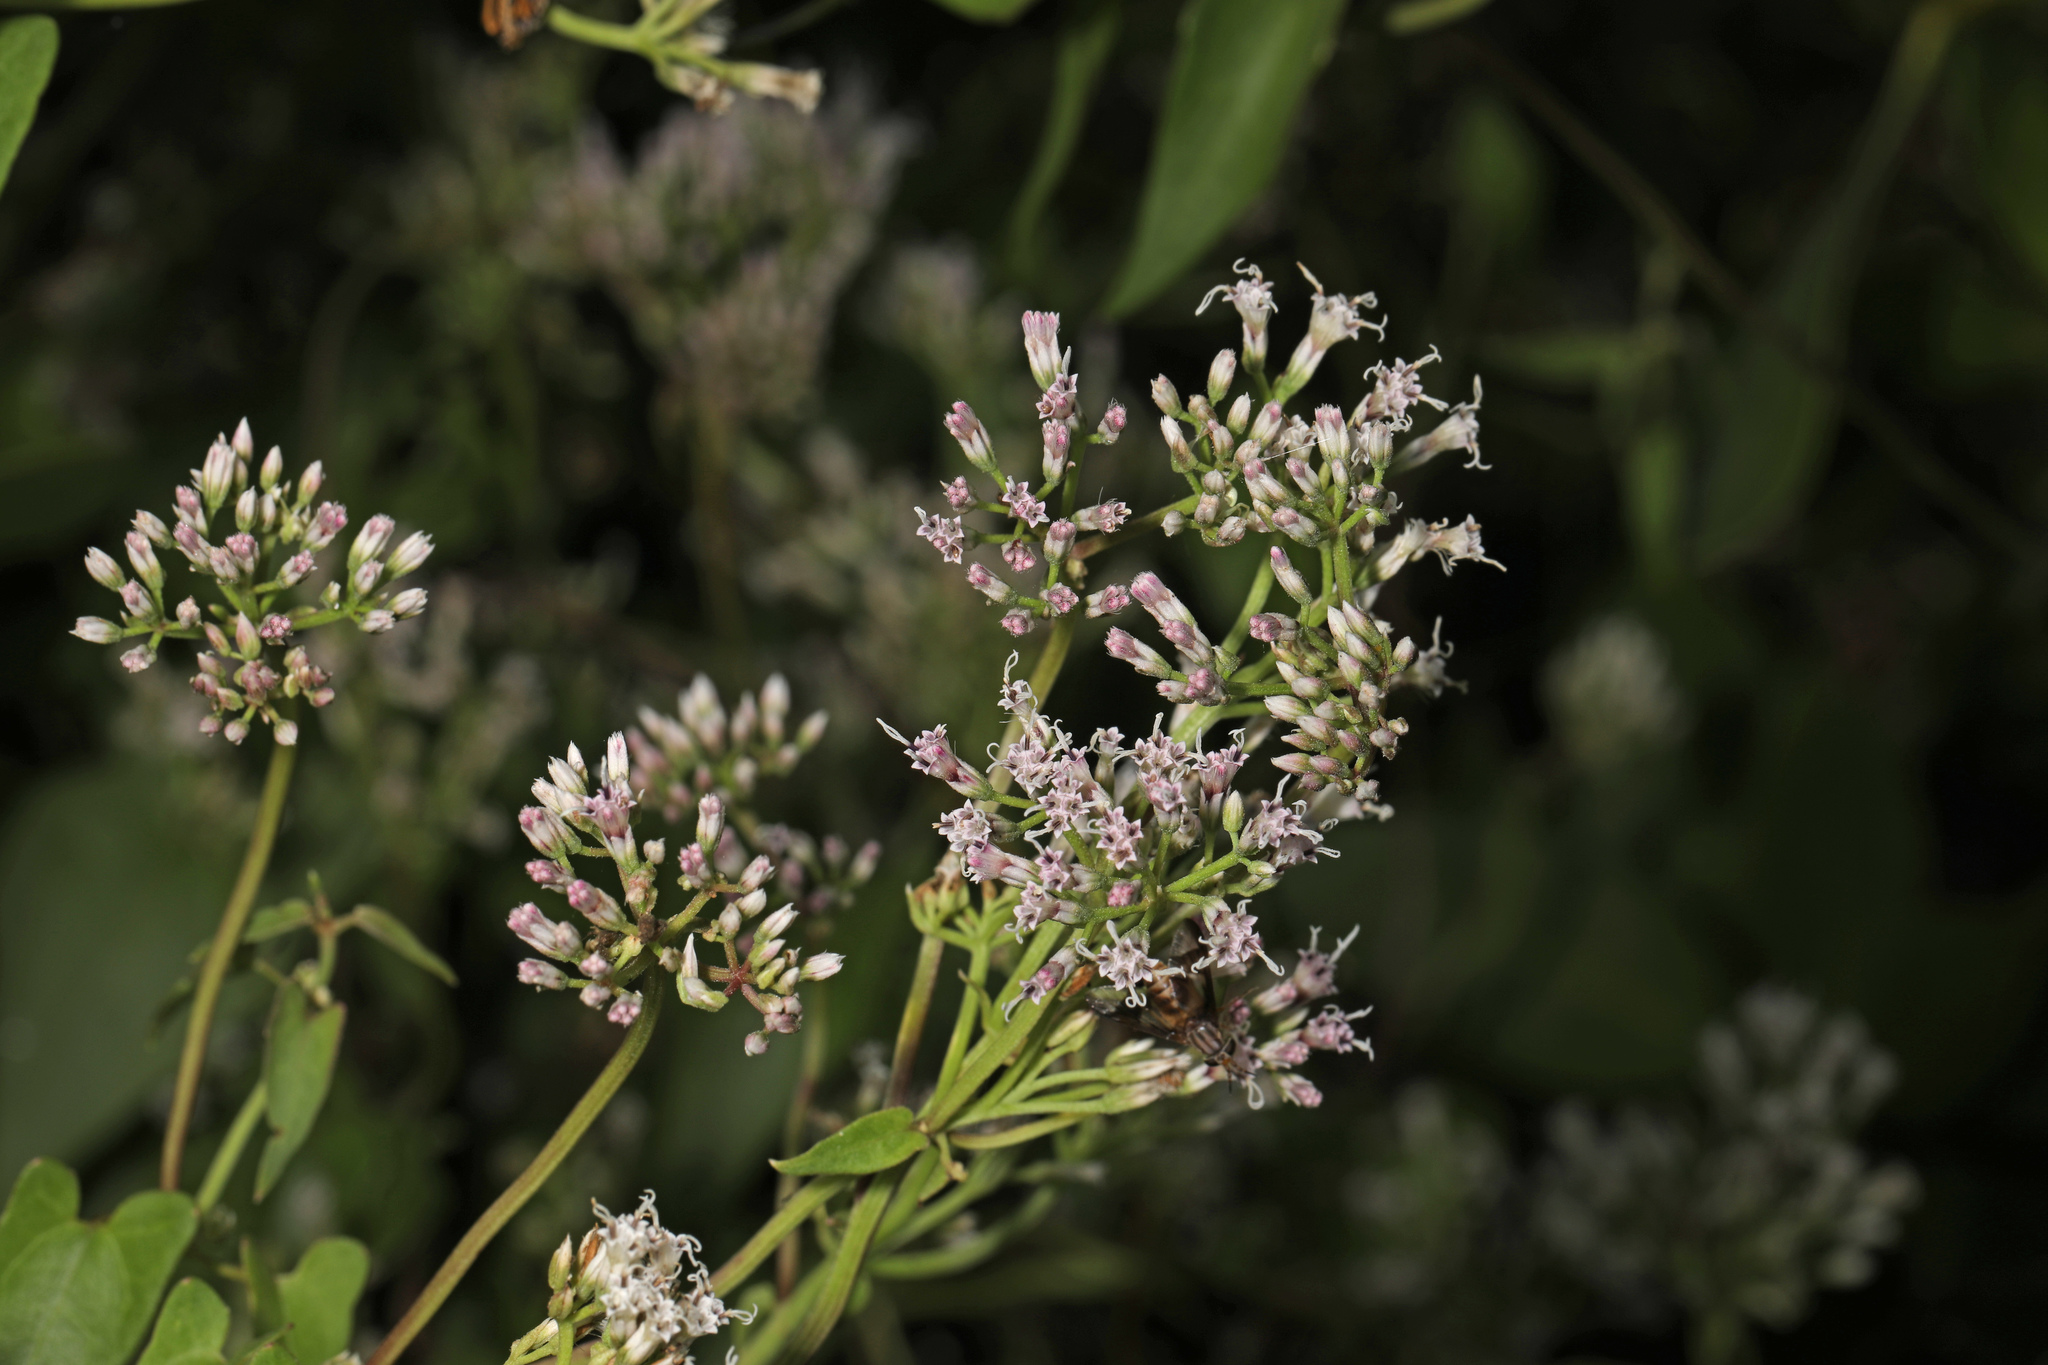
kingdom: Plantae
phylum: Tracheophyta
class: Magnoliopsida
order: Asterales
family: Asteraceae
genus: Mikania
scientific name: Mikania scandens
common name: Climbing hempvine
